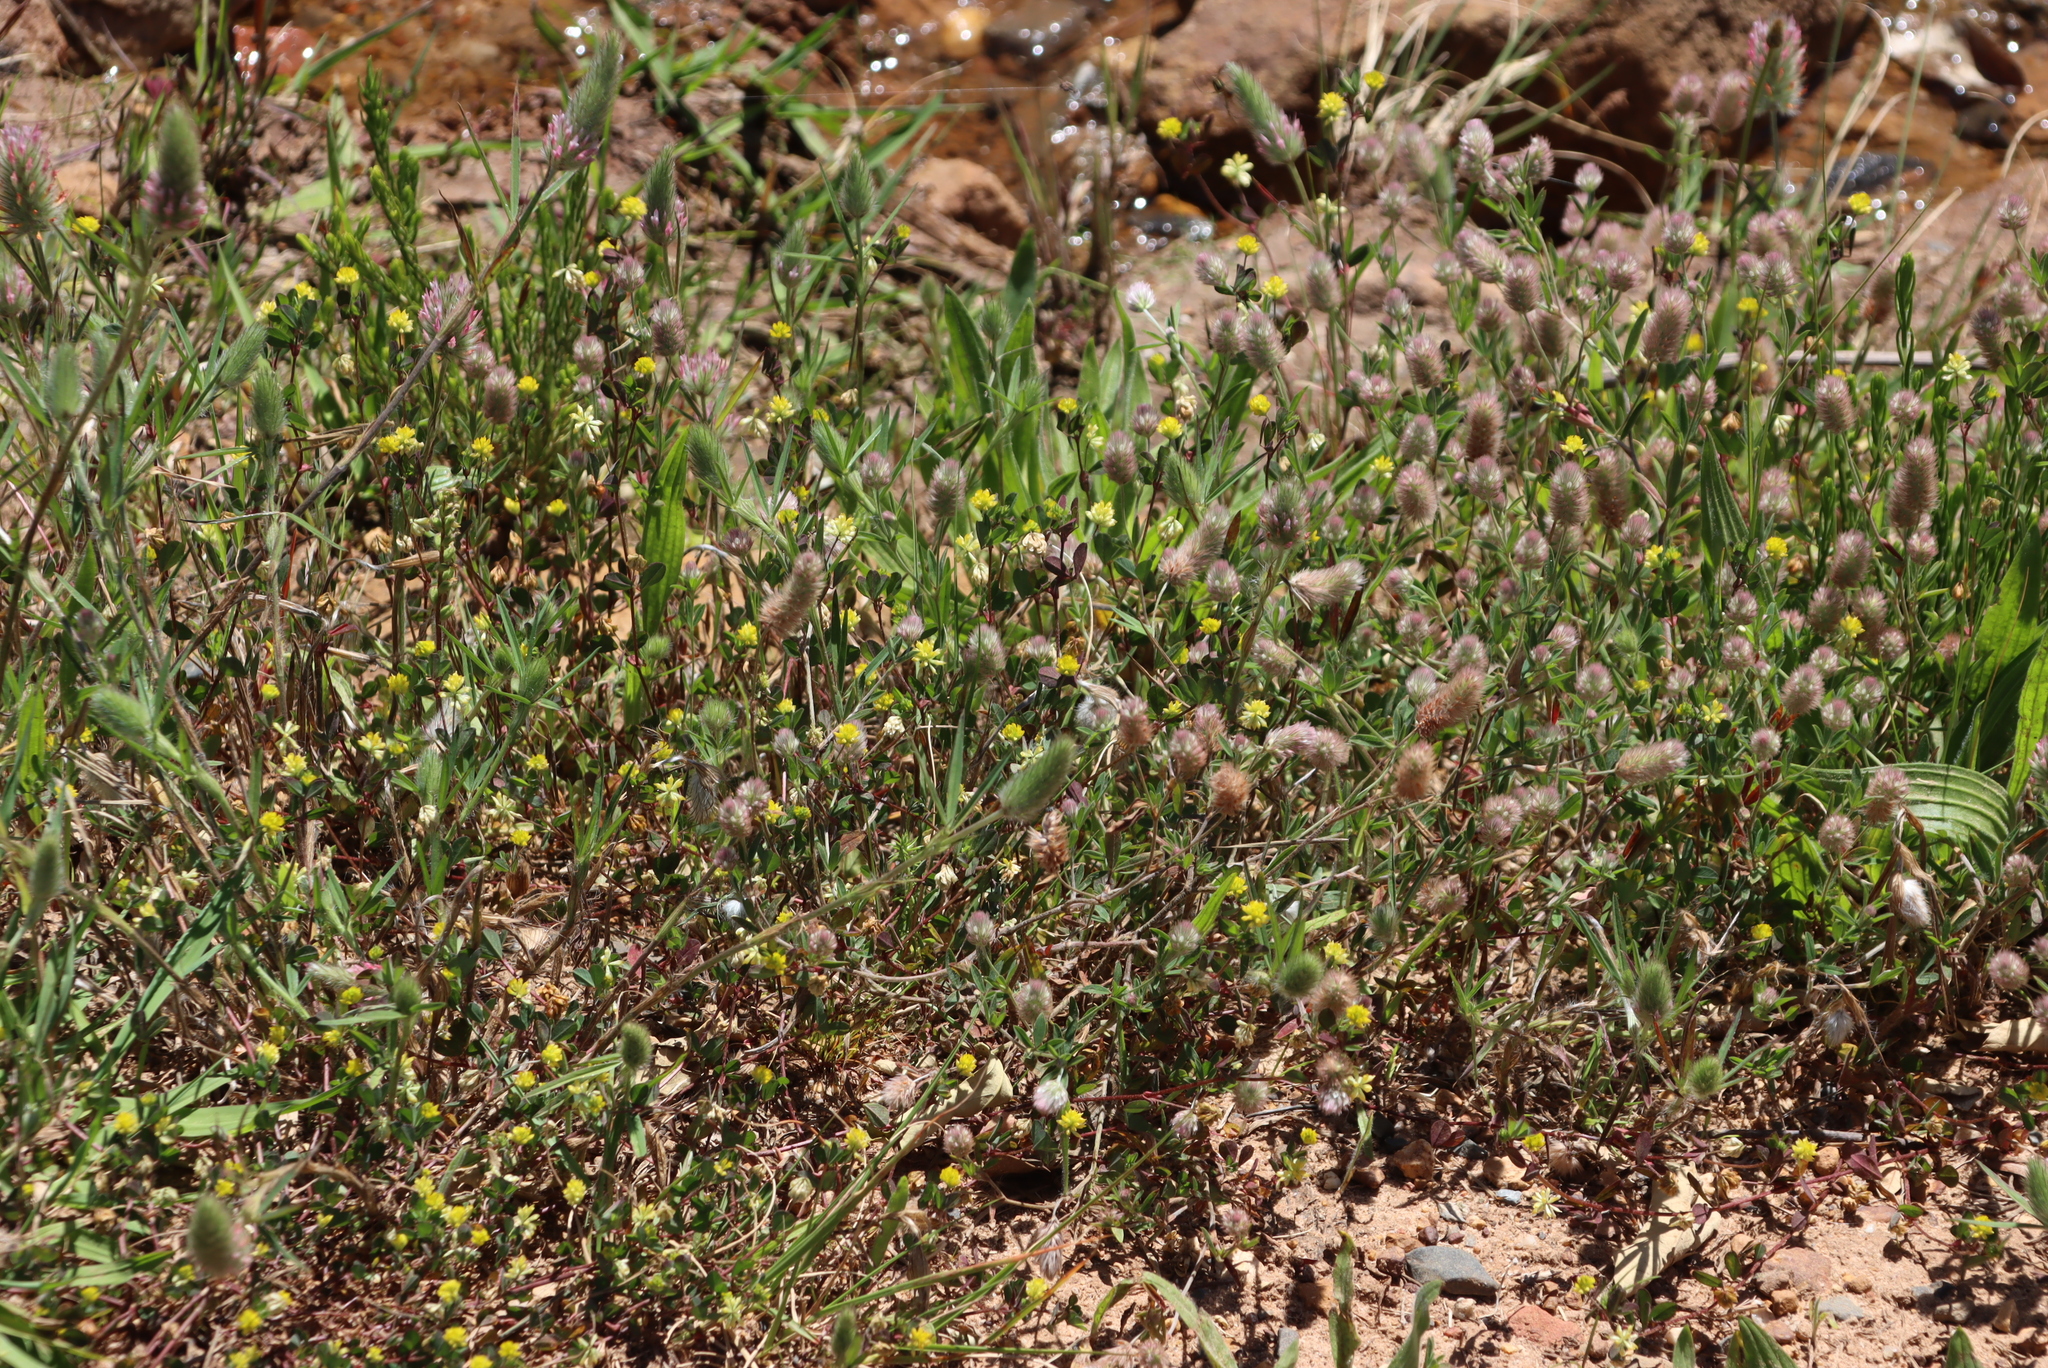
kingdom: Plantae
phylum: Tracheophyta
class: Magnoliopsida
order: Fabales
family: Fabaceae
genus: Trifolium
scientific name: Trifolium dubium
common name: Suckling clover
